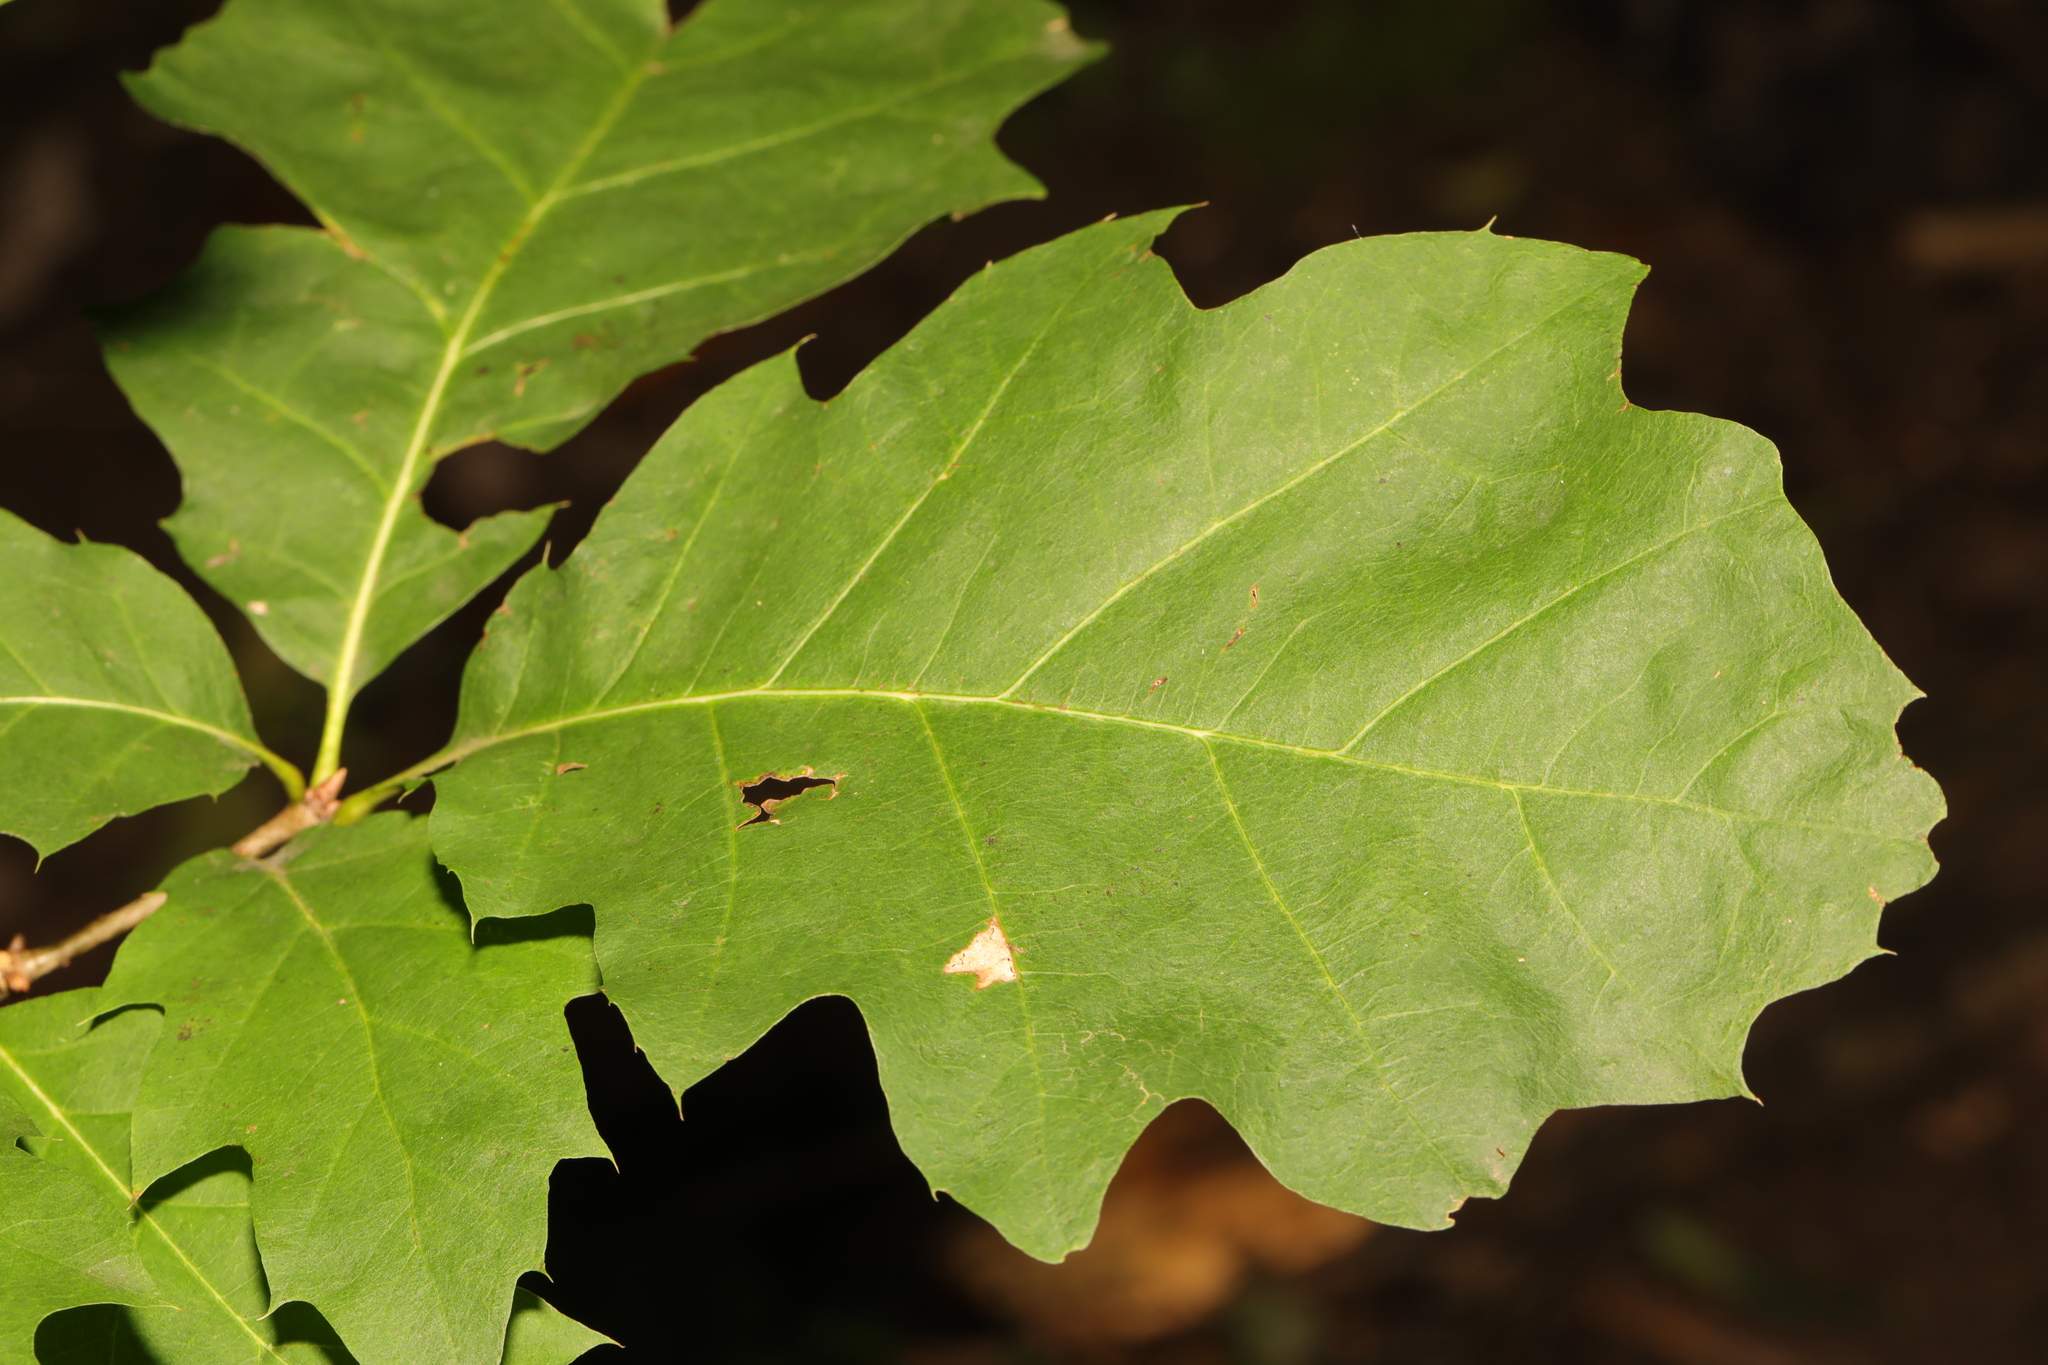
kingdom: Plantae
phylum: Tracheophyta
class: Magnoliopsida
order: Fagales
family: Fagaceae
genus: Quercus
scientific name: Quercus rubra
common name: Red oak
